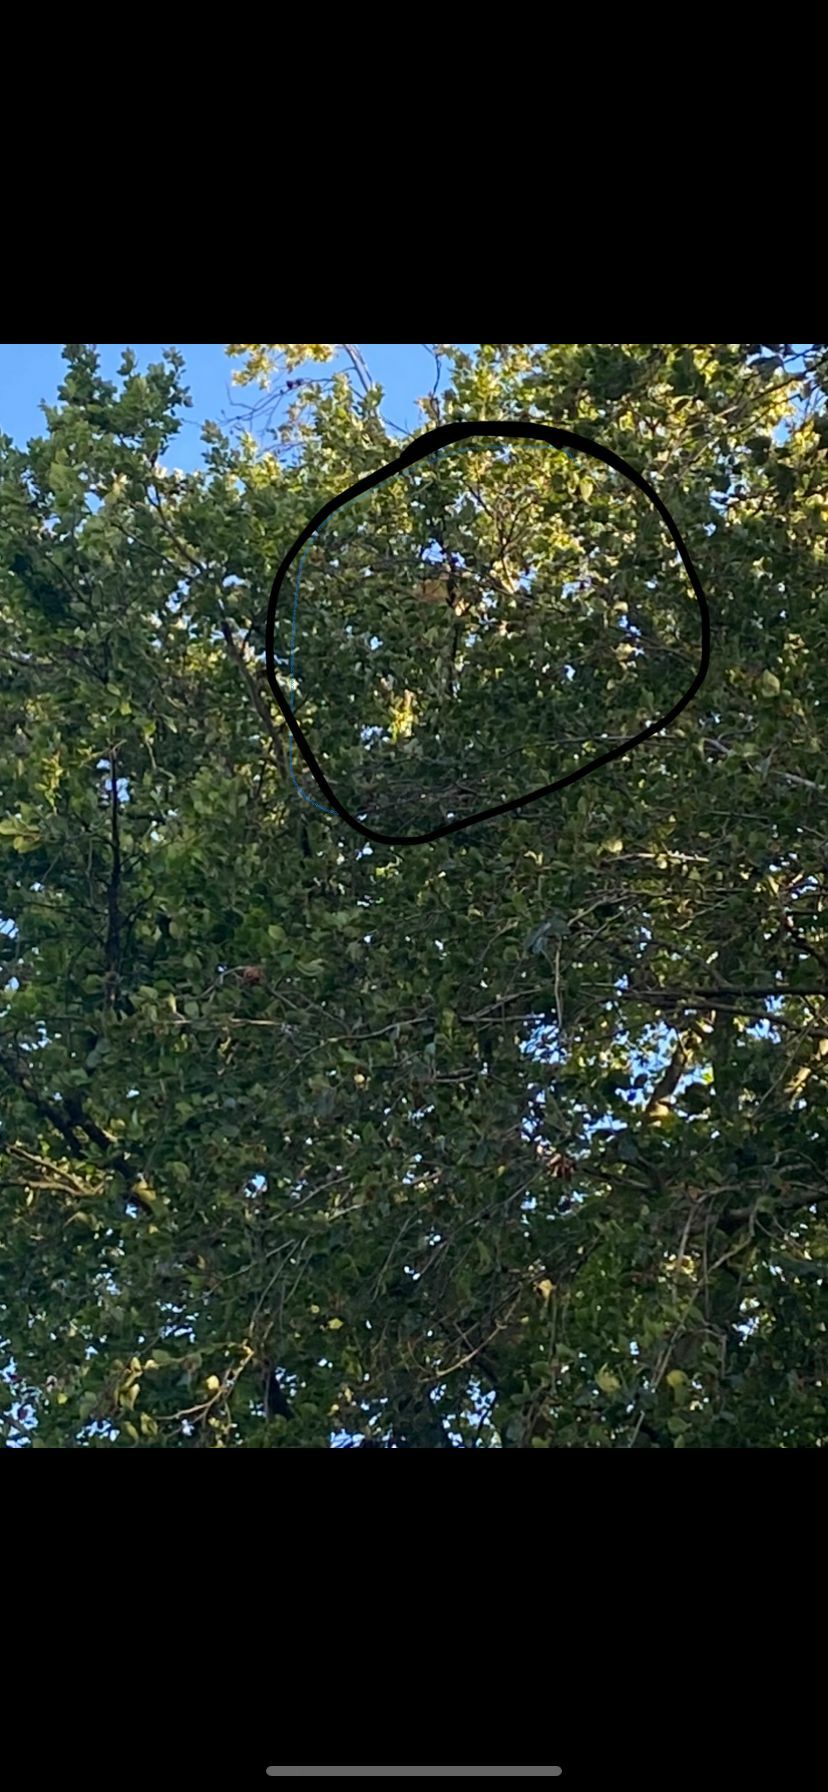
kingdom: Animalia
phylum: Arthropoda
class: Insecta
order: Hymenoptera
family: Vespidae
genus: Vespa
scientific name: Vespa velutina
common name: Asian hornet
